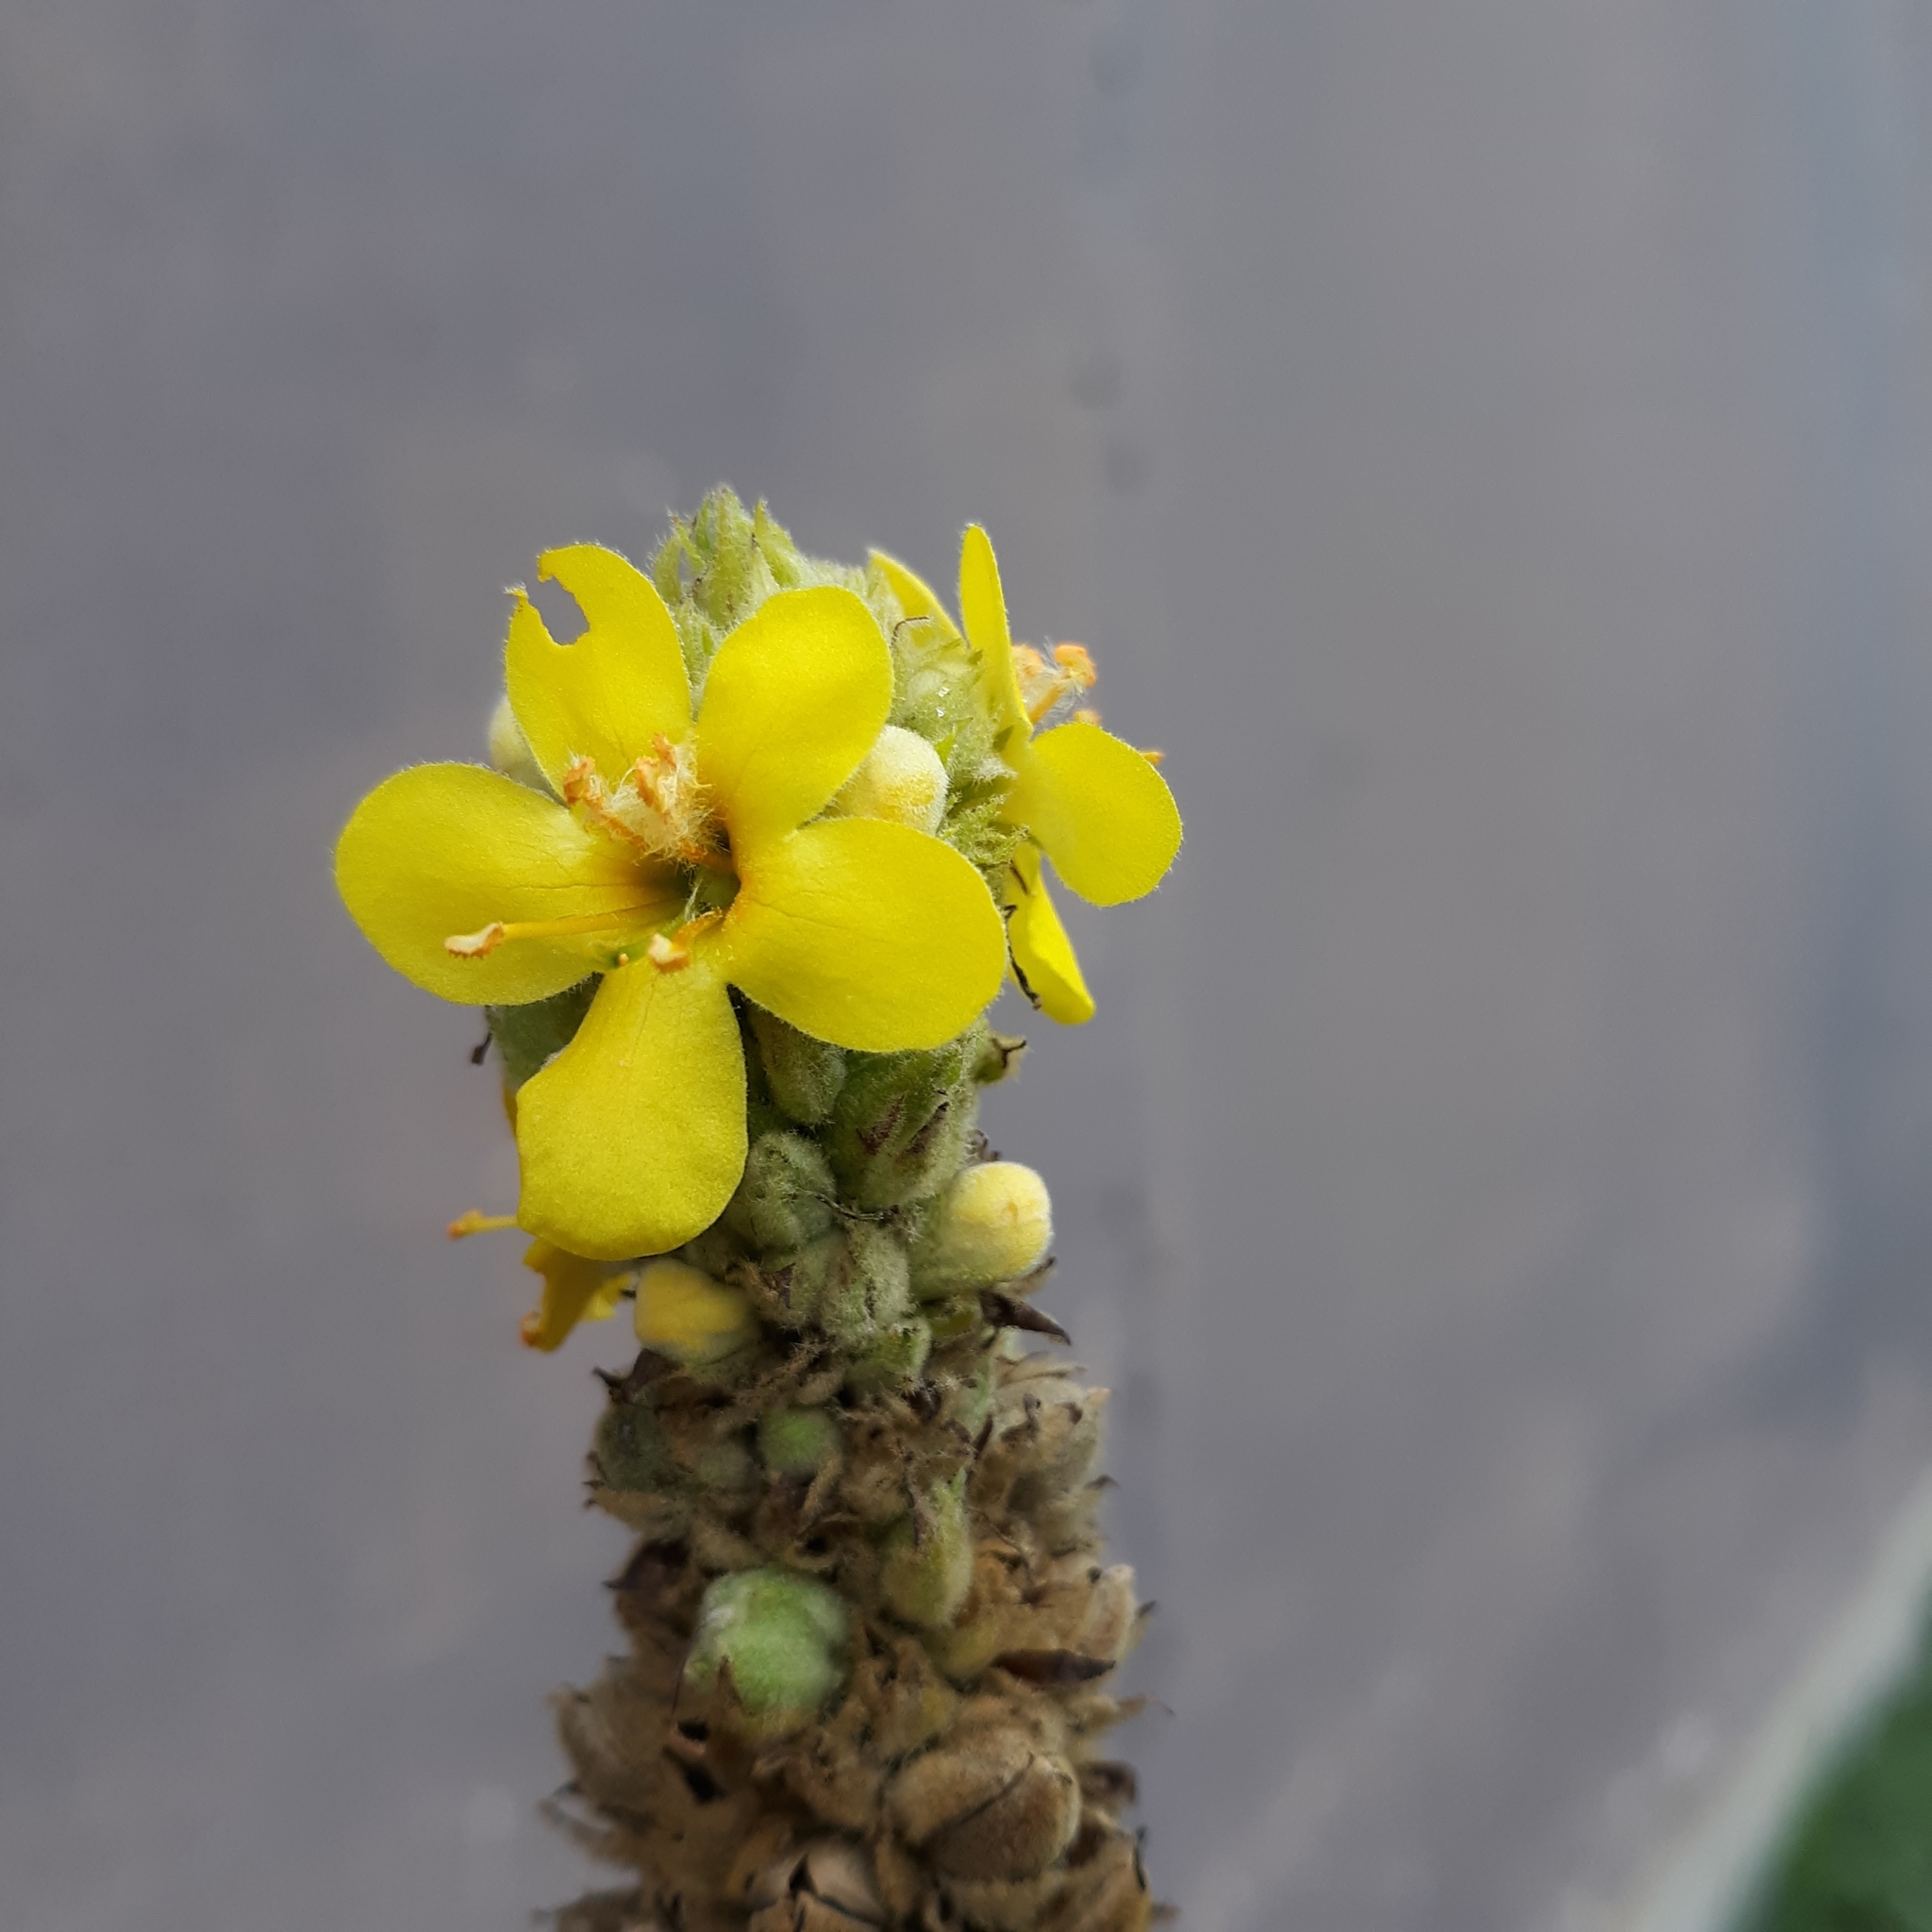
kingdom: Plantae
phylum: Tracheophyta
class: Magnoliopsida
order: Lamiales
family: Scrophulariaceae
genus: Verbascum
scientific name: Verbascum thapsus
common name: Common mullein
